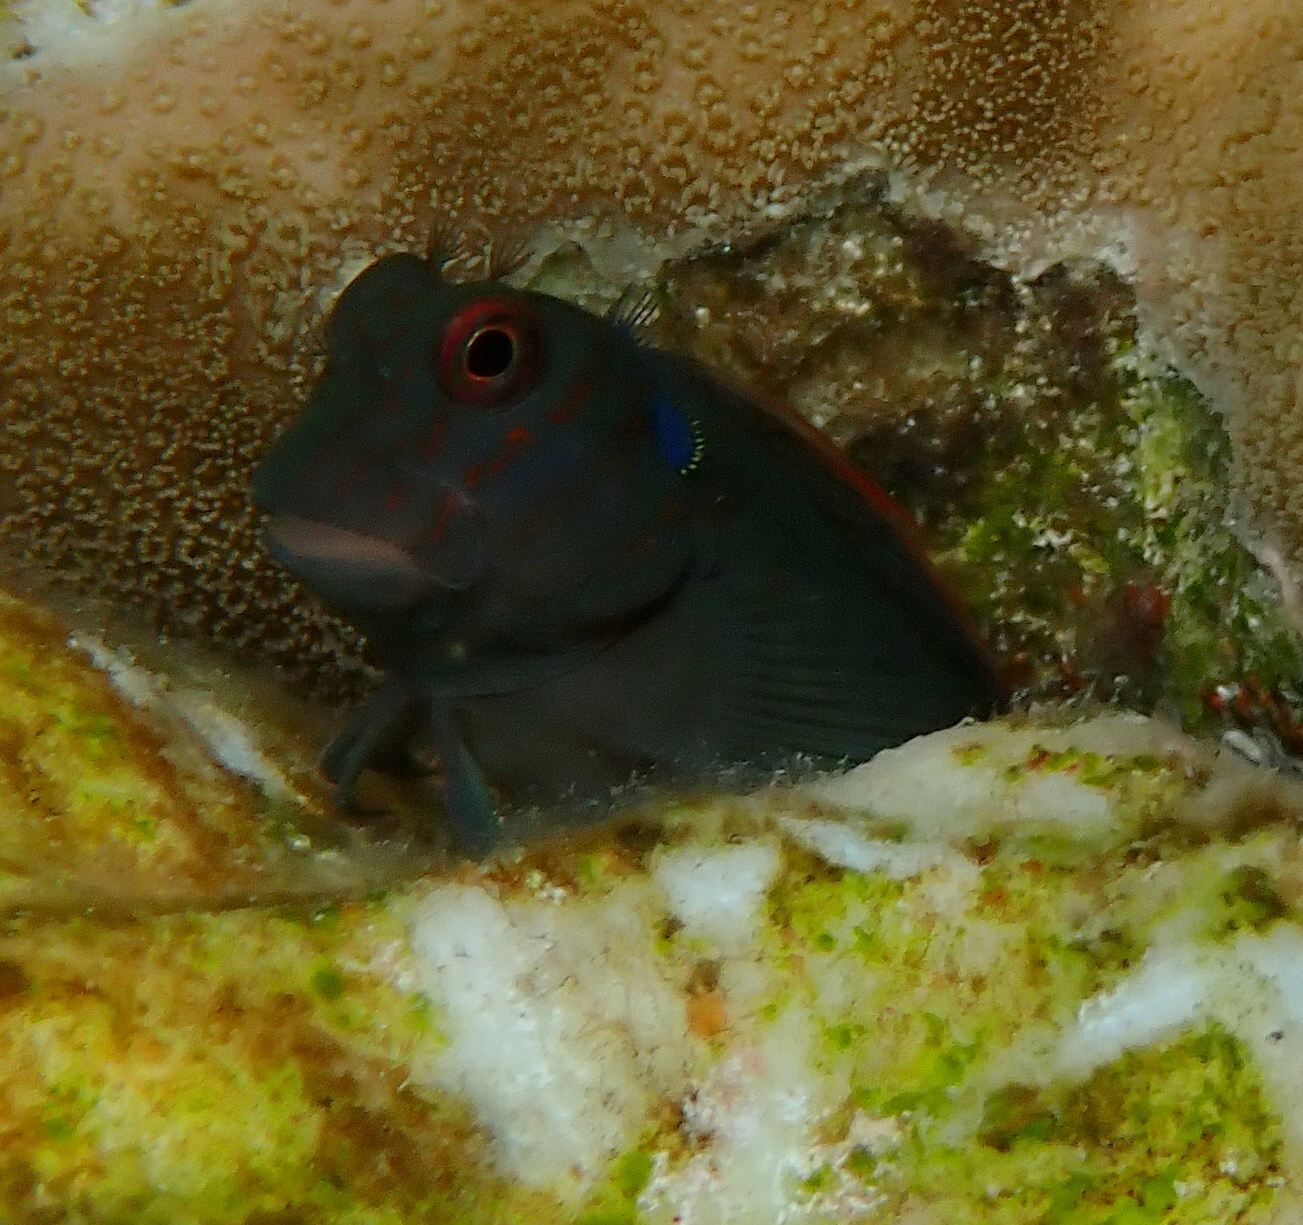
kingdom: Animalia
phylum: Chordata
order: Perciformes
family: Blenniidae
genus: Cirripectes
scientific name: Cirripectes castaneus
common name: Chestnut blenny
